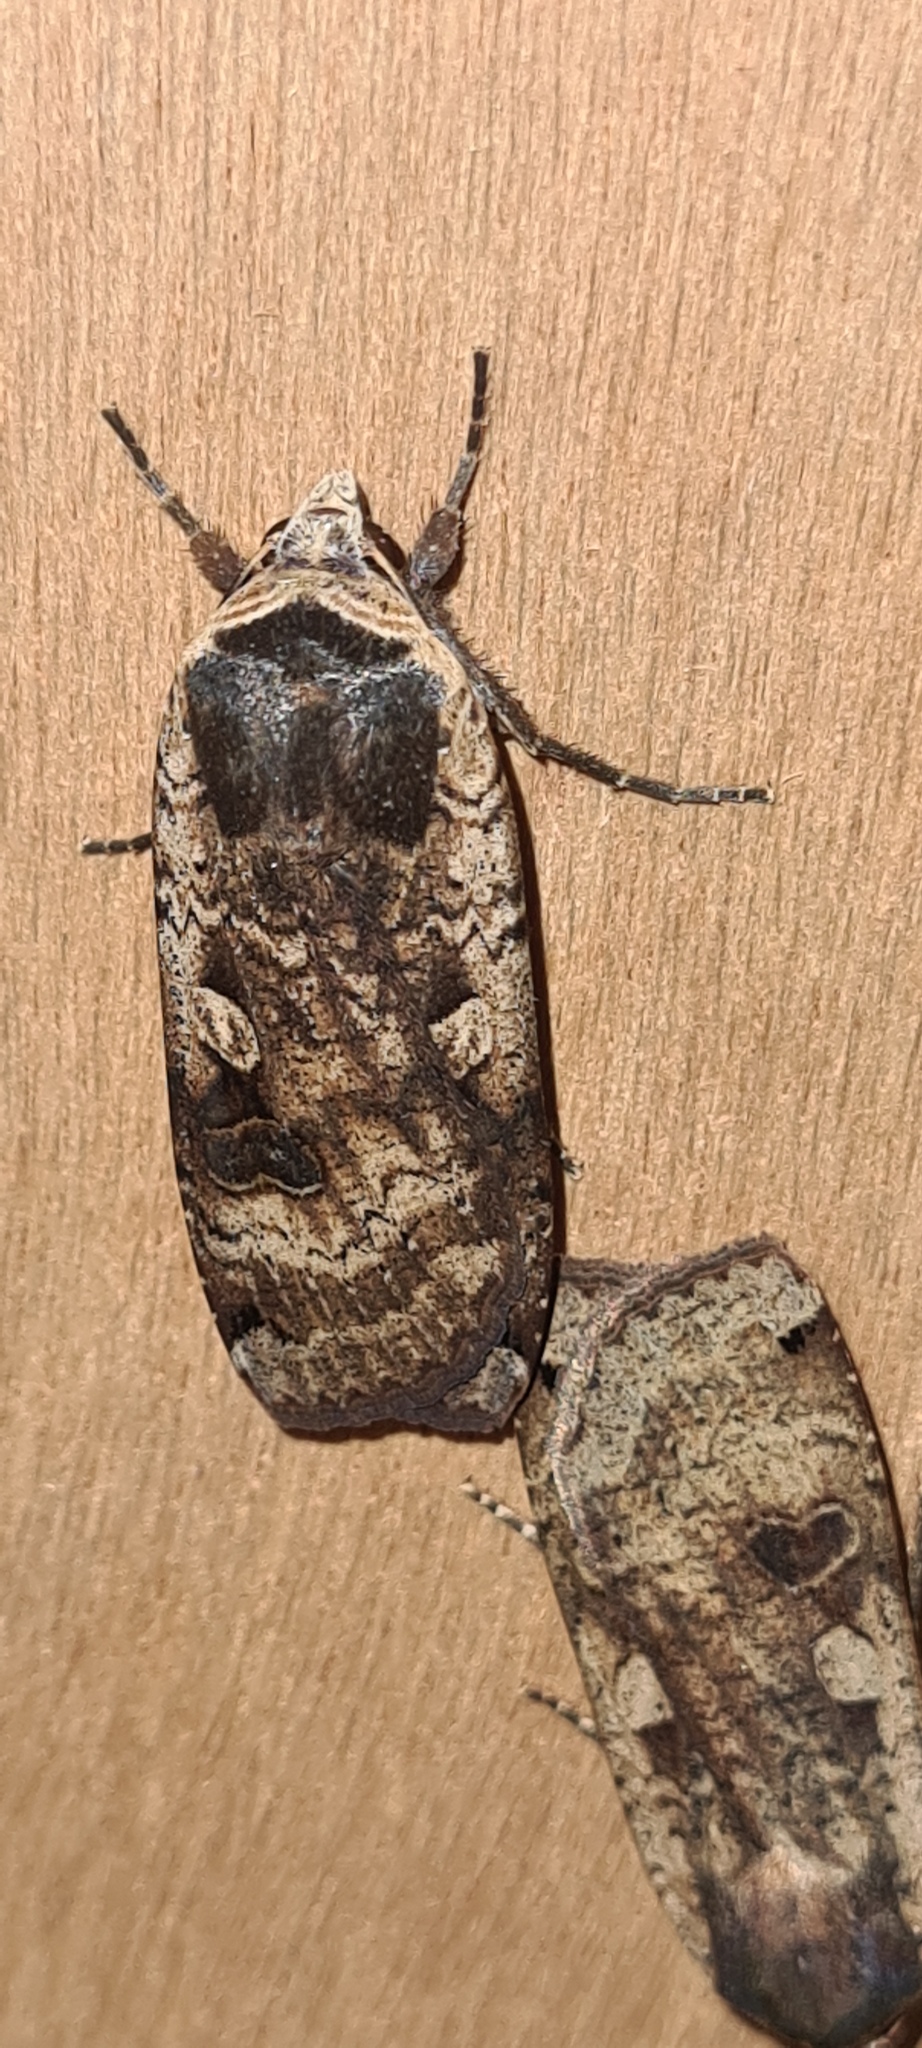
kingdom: Animalia
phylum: Arthropoda
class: Insecta
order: Lepidoptera
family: Noctuidae
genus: Noctua
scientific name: Noctua pronuba
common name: Large yellow underwing
